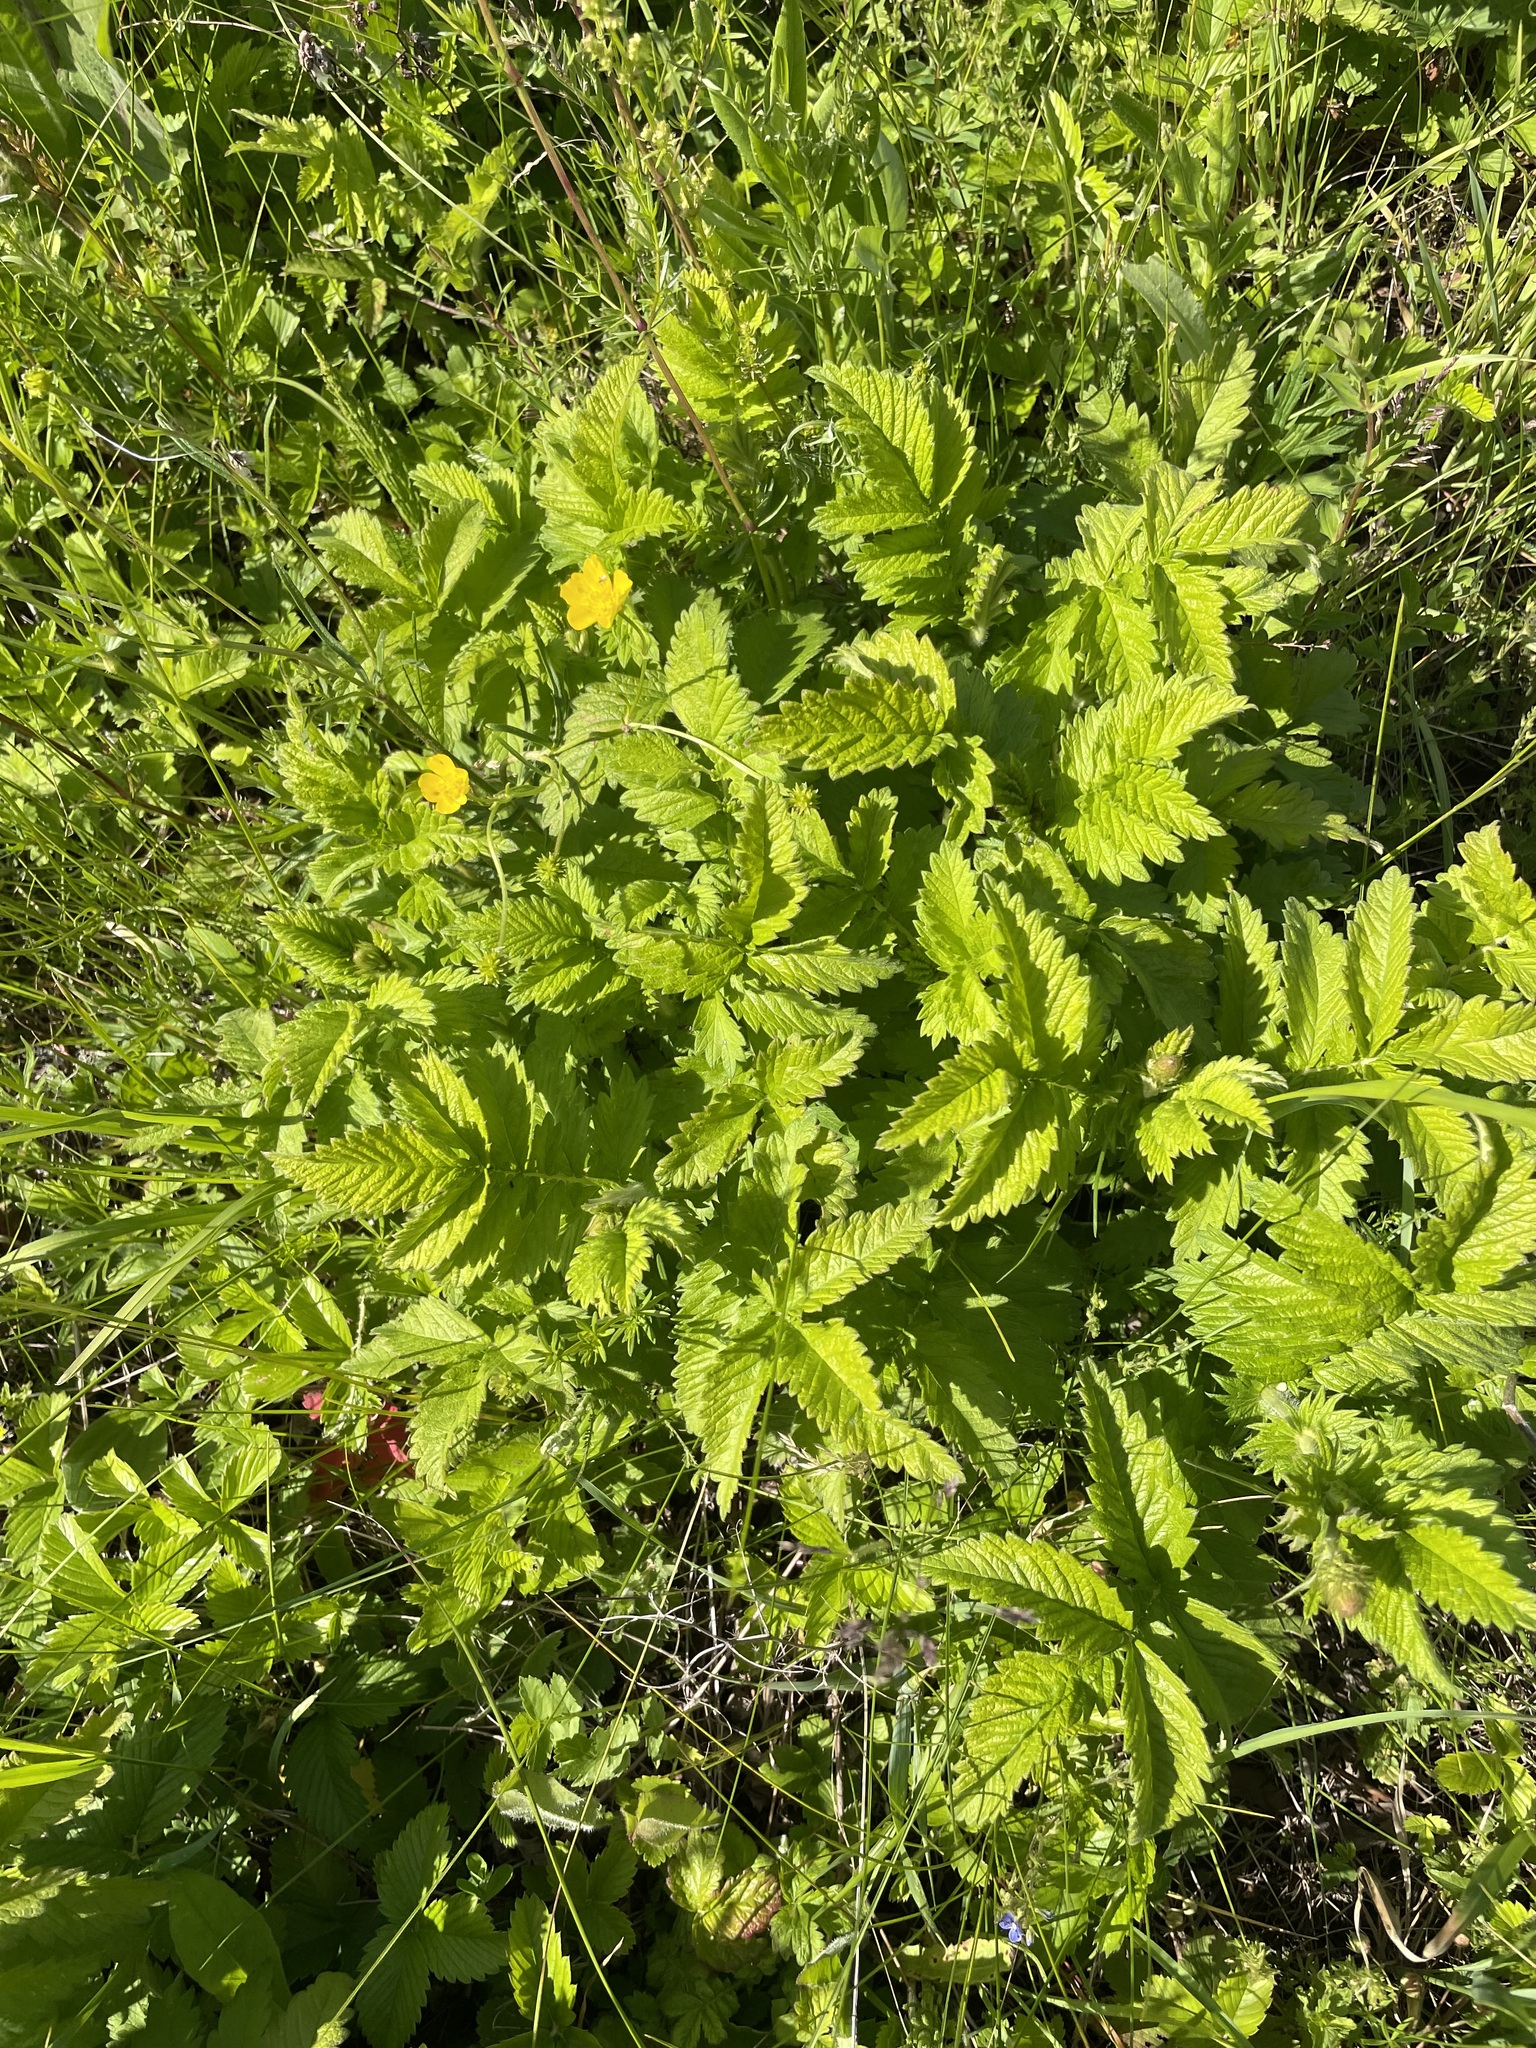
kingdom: Plantae
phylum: Tracheophyta
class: Magnoliopsida
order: Rosales
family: Rosaceae
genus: Agrimonia
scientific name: Agrimonia eupatoria
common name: Agrimony
